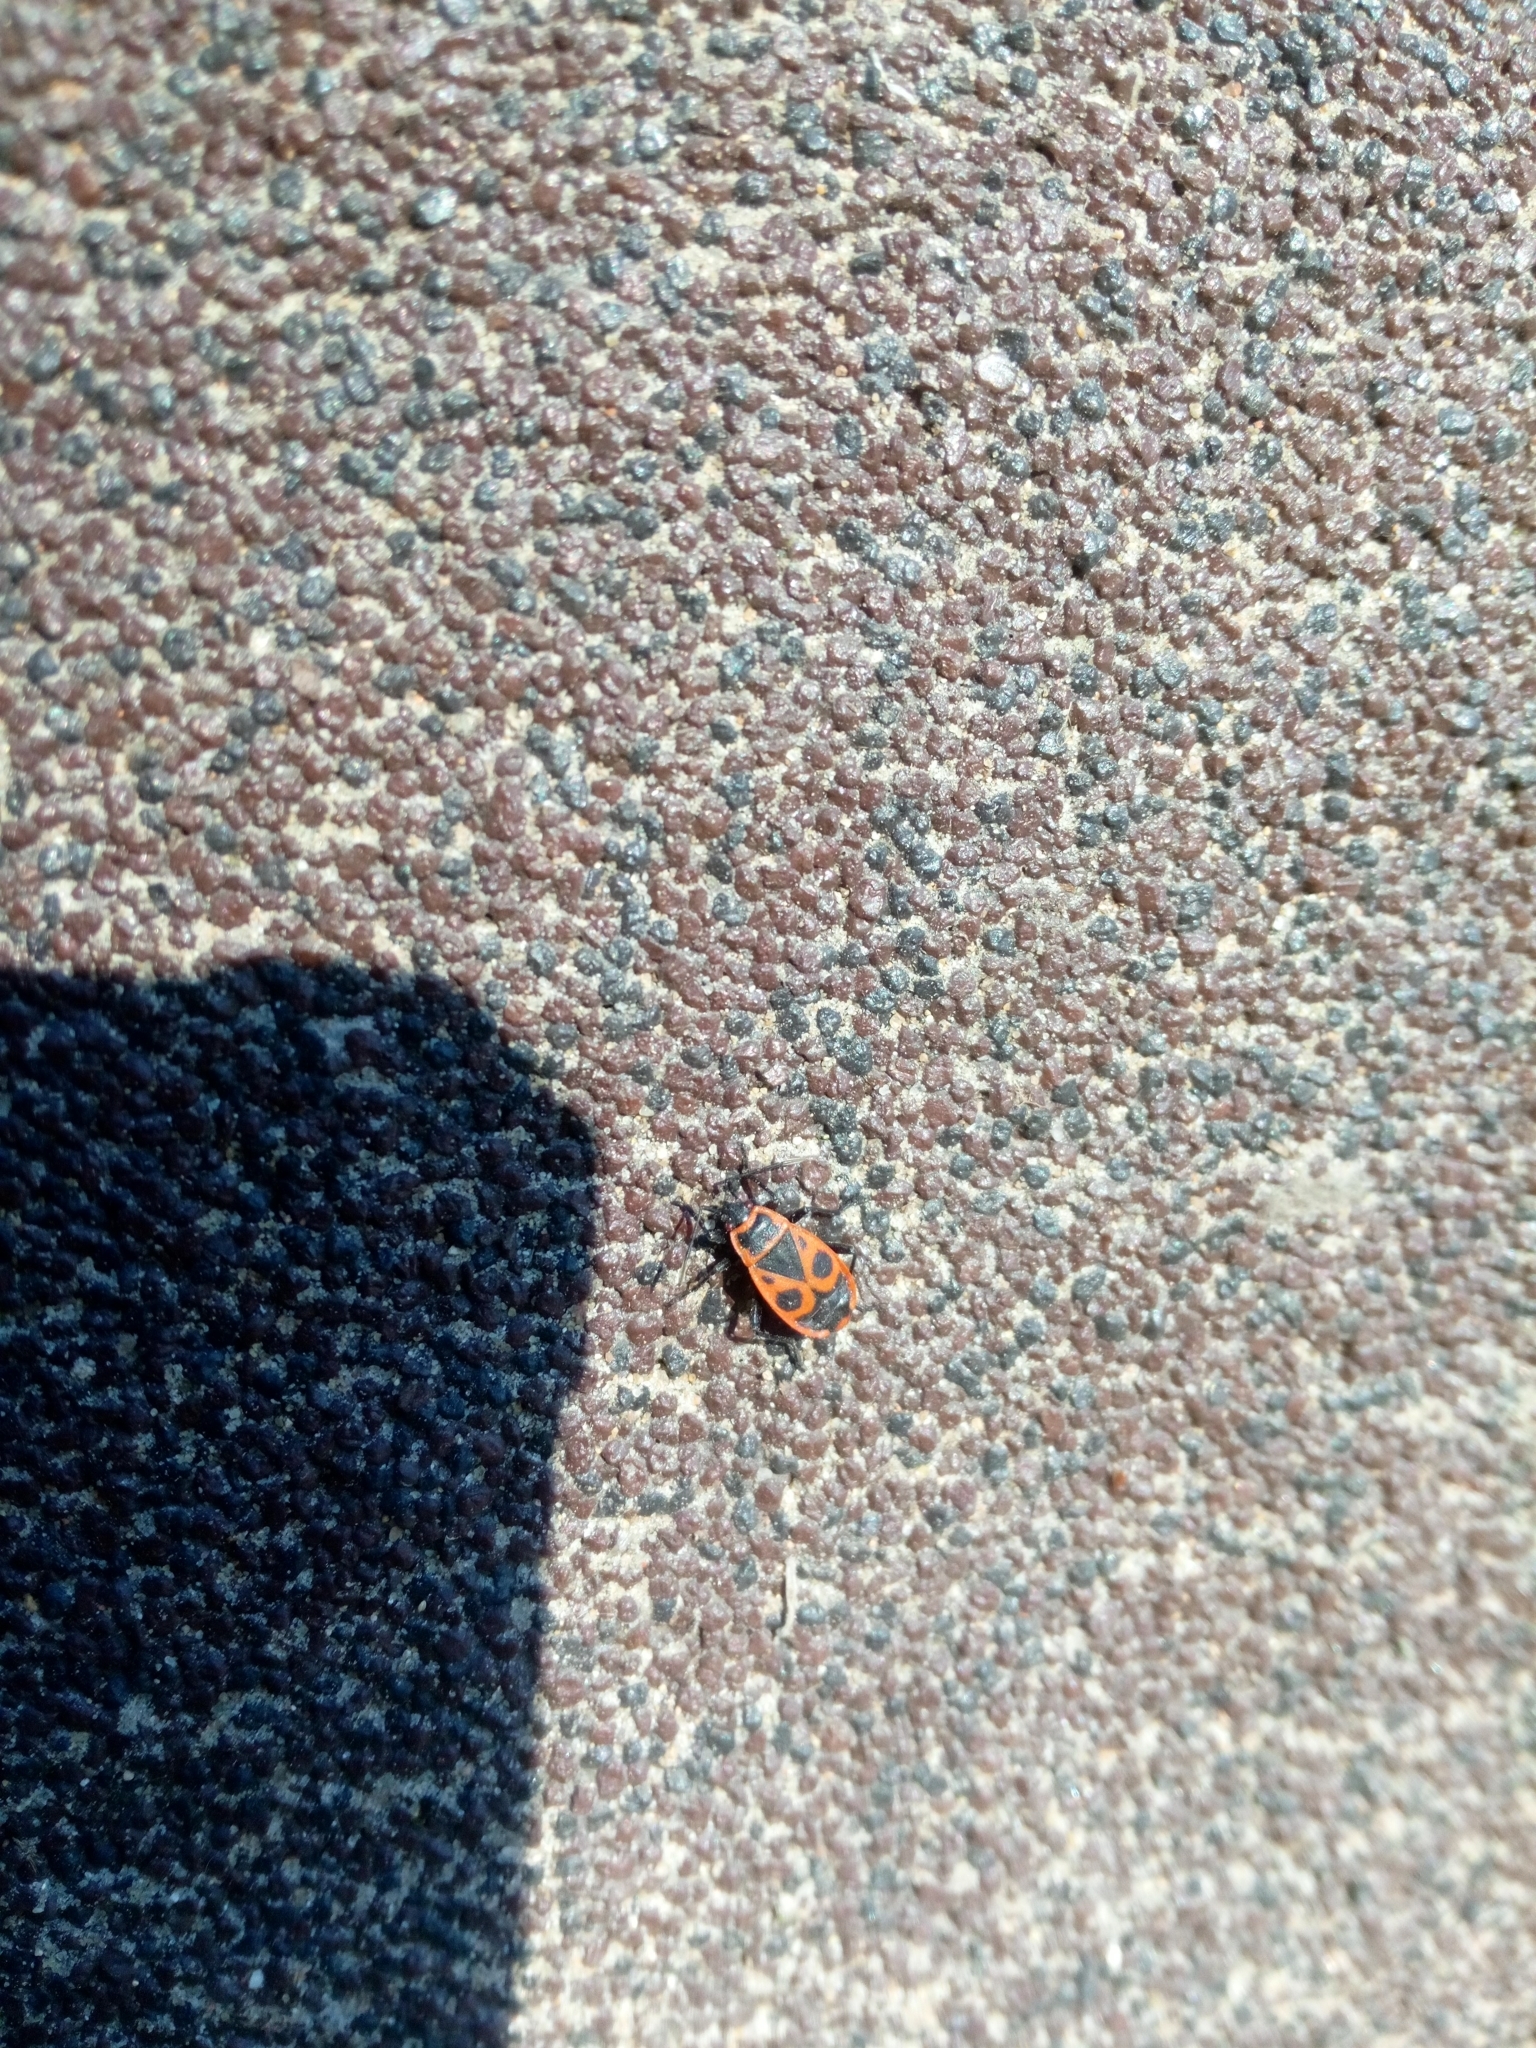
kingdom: Animalia
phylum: Arthropoda
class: Insecta
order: Hemiptera
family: Pyrrhocoridae
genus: Pyrrhocoris
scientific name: Pyrrhocoris apterus
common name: Firebug
